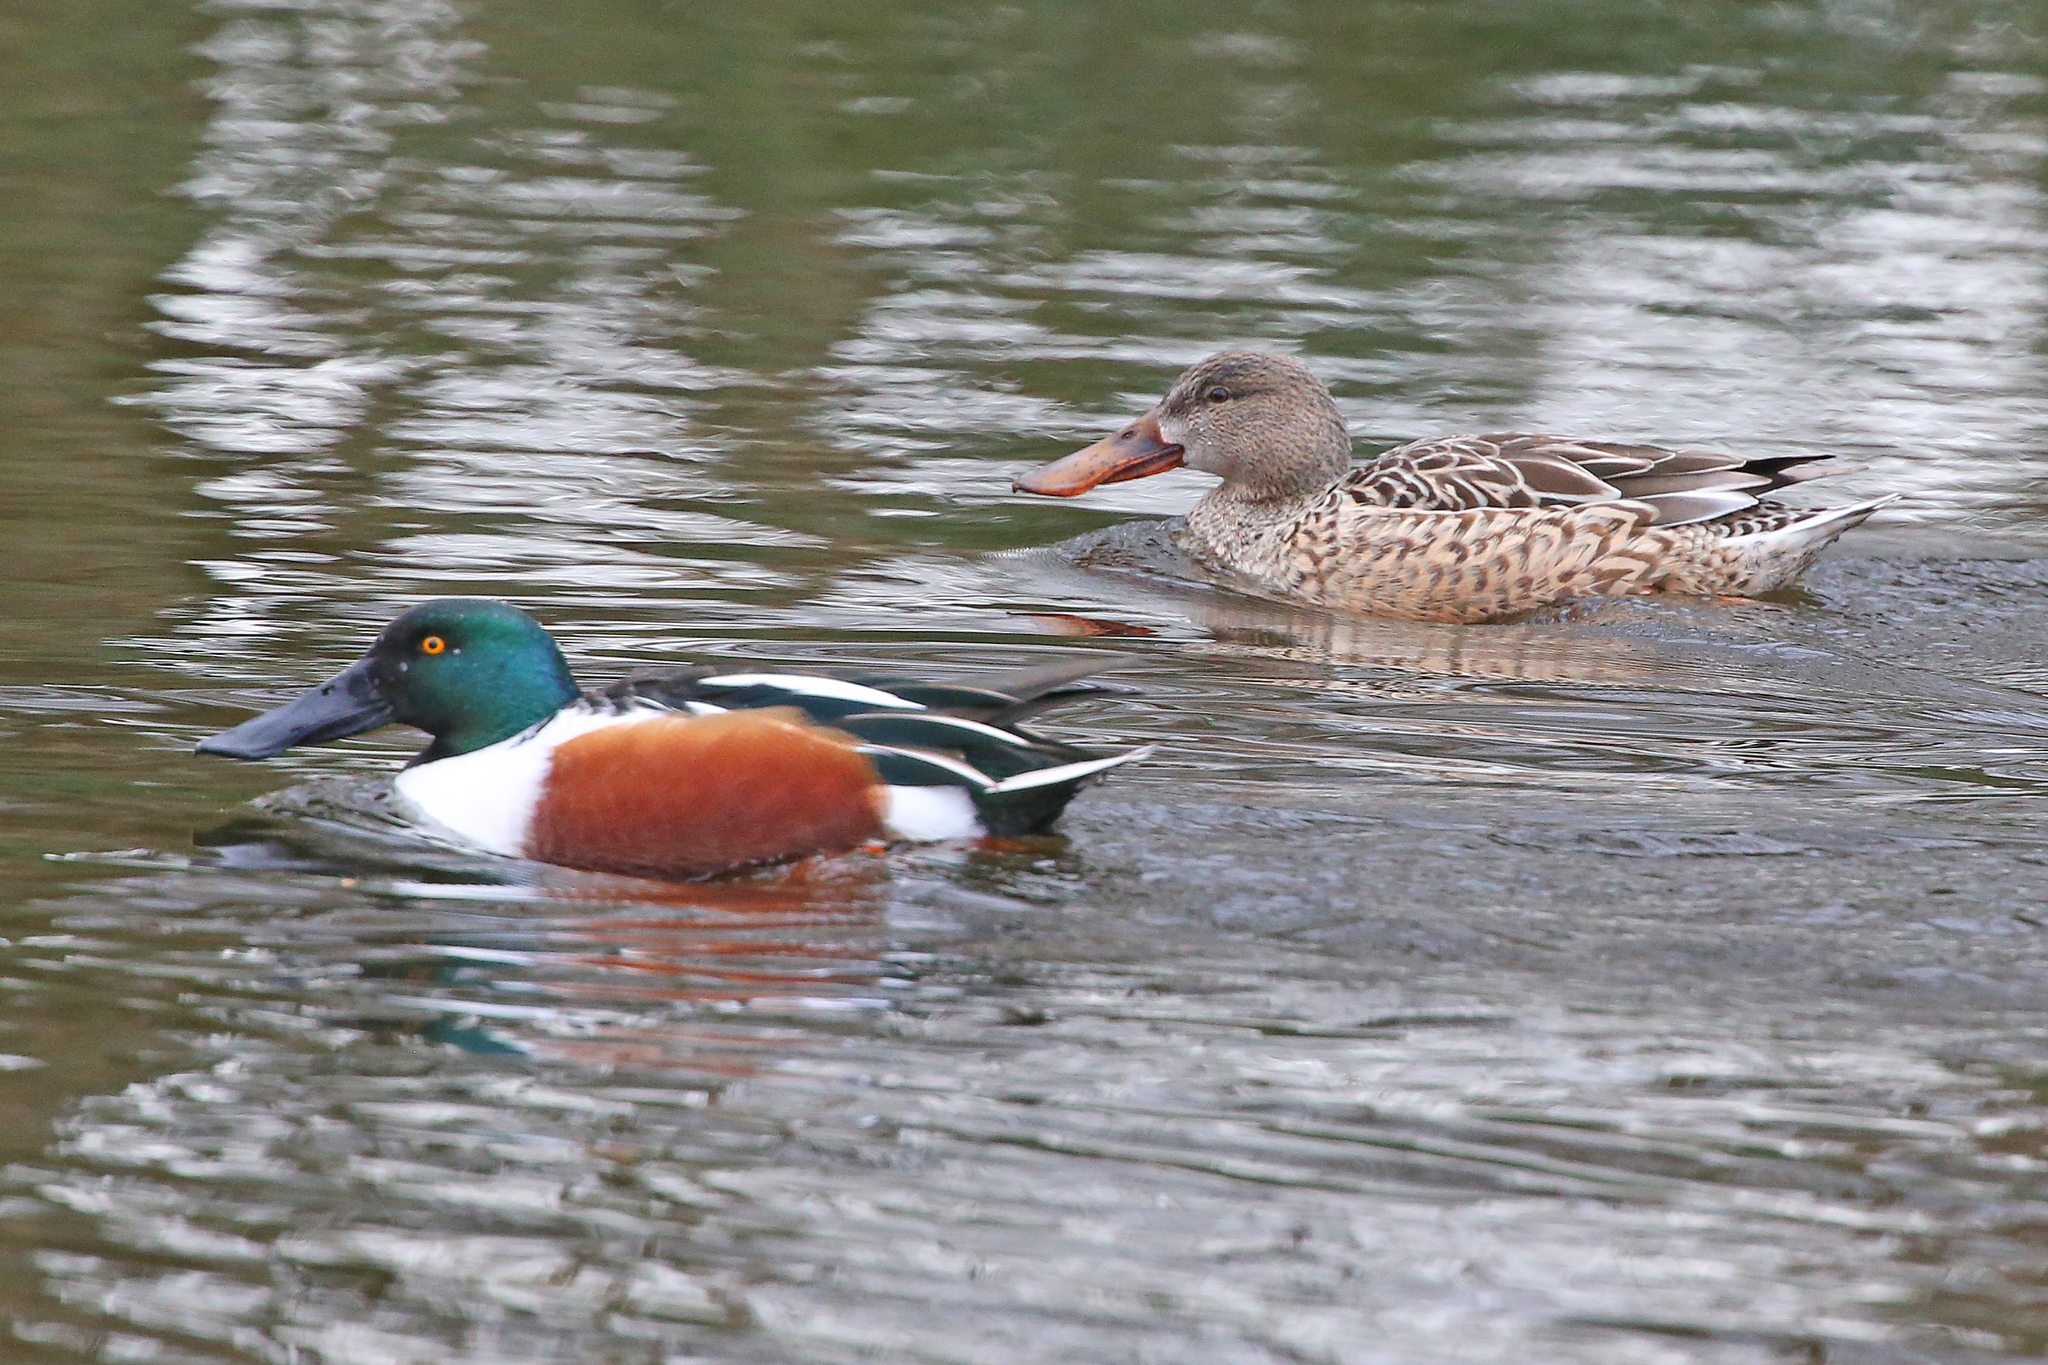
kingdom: Animalia
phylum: Chordata
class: Aves
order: Anseriformes
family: Anatidae
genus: Spatula
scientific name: Spatula clypeata
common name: Northern shoveler
